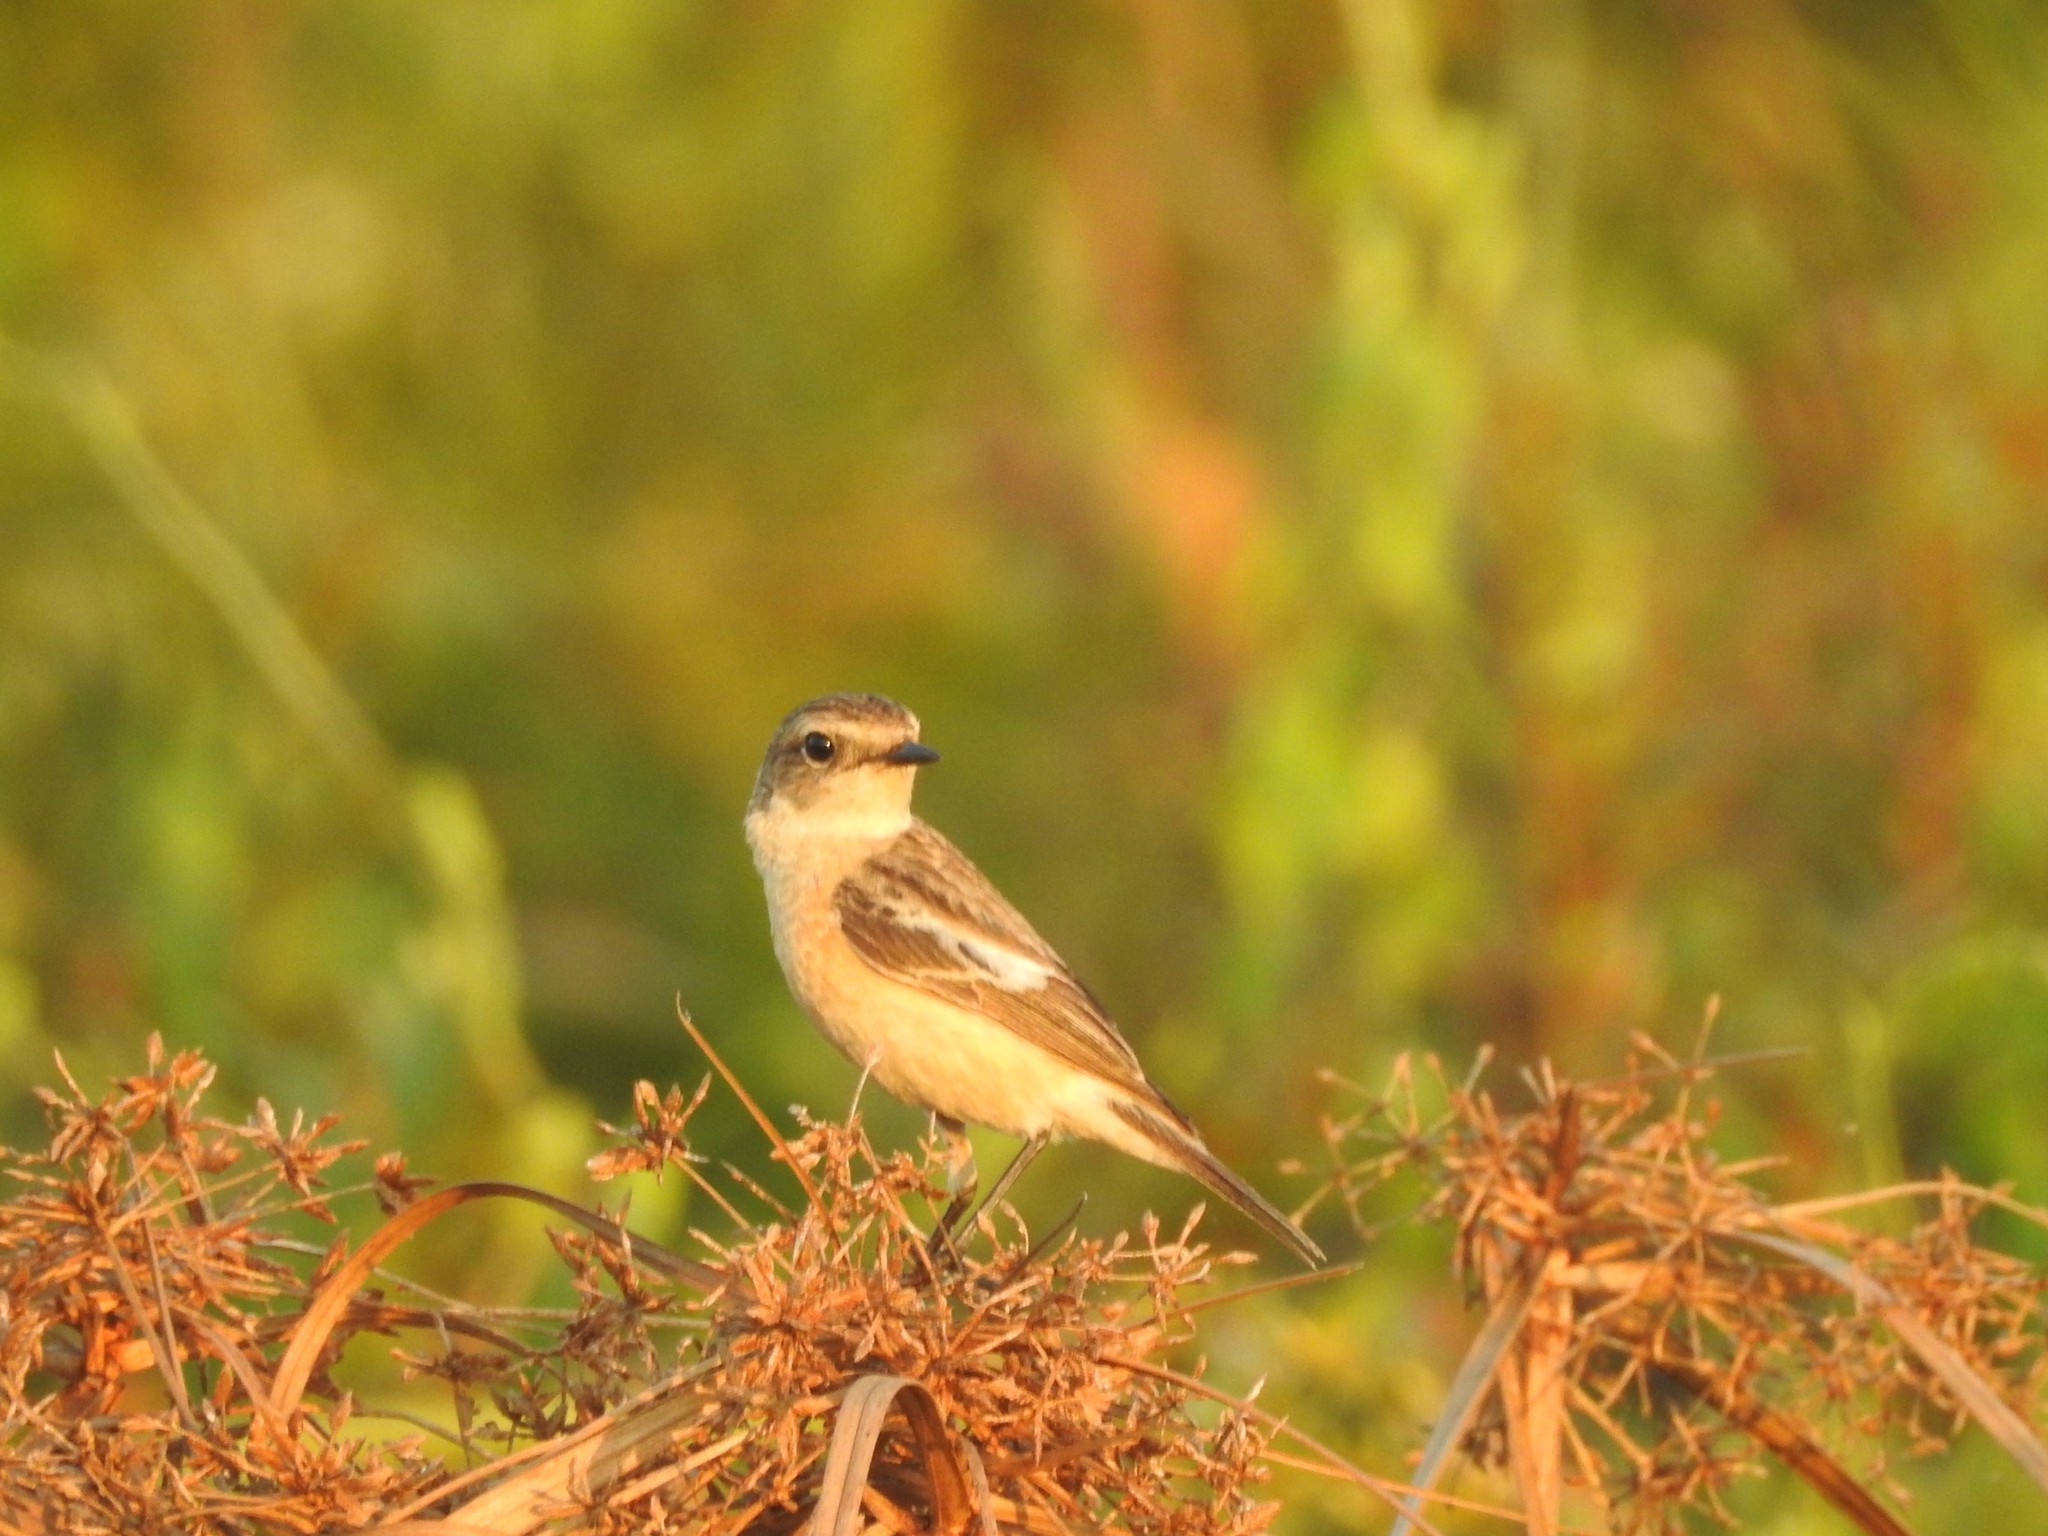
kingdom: Animalia
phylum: Chordata
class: Aves
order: Passeriformes
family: Muscicapidae
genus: Saxicola
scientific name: Saxicola maurus
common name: Siberian stonechat
